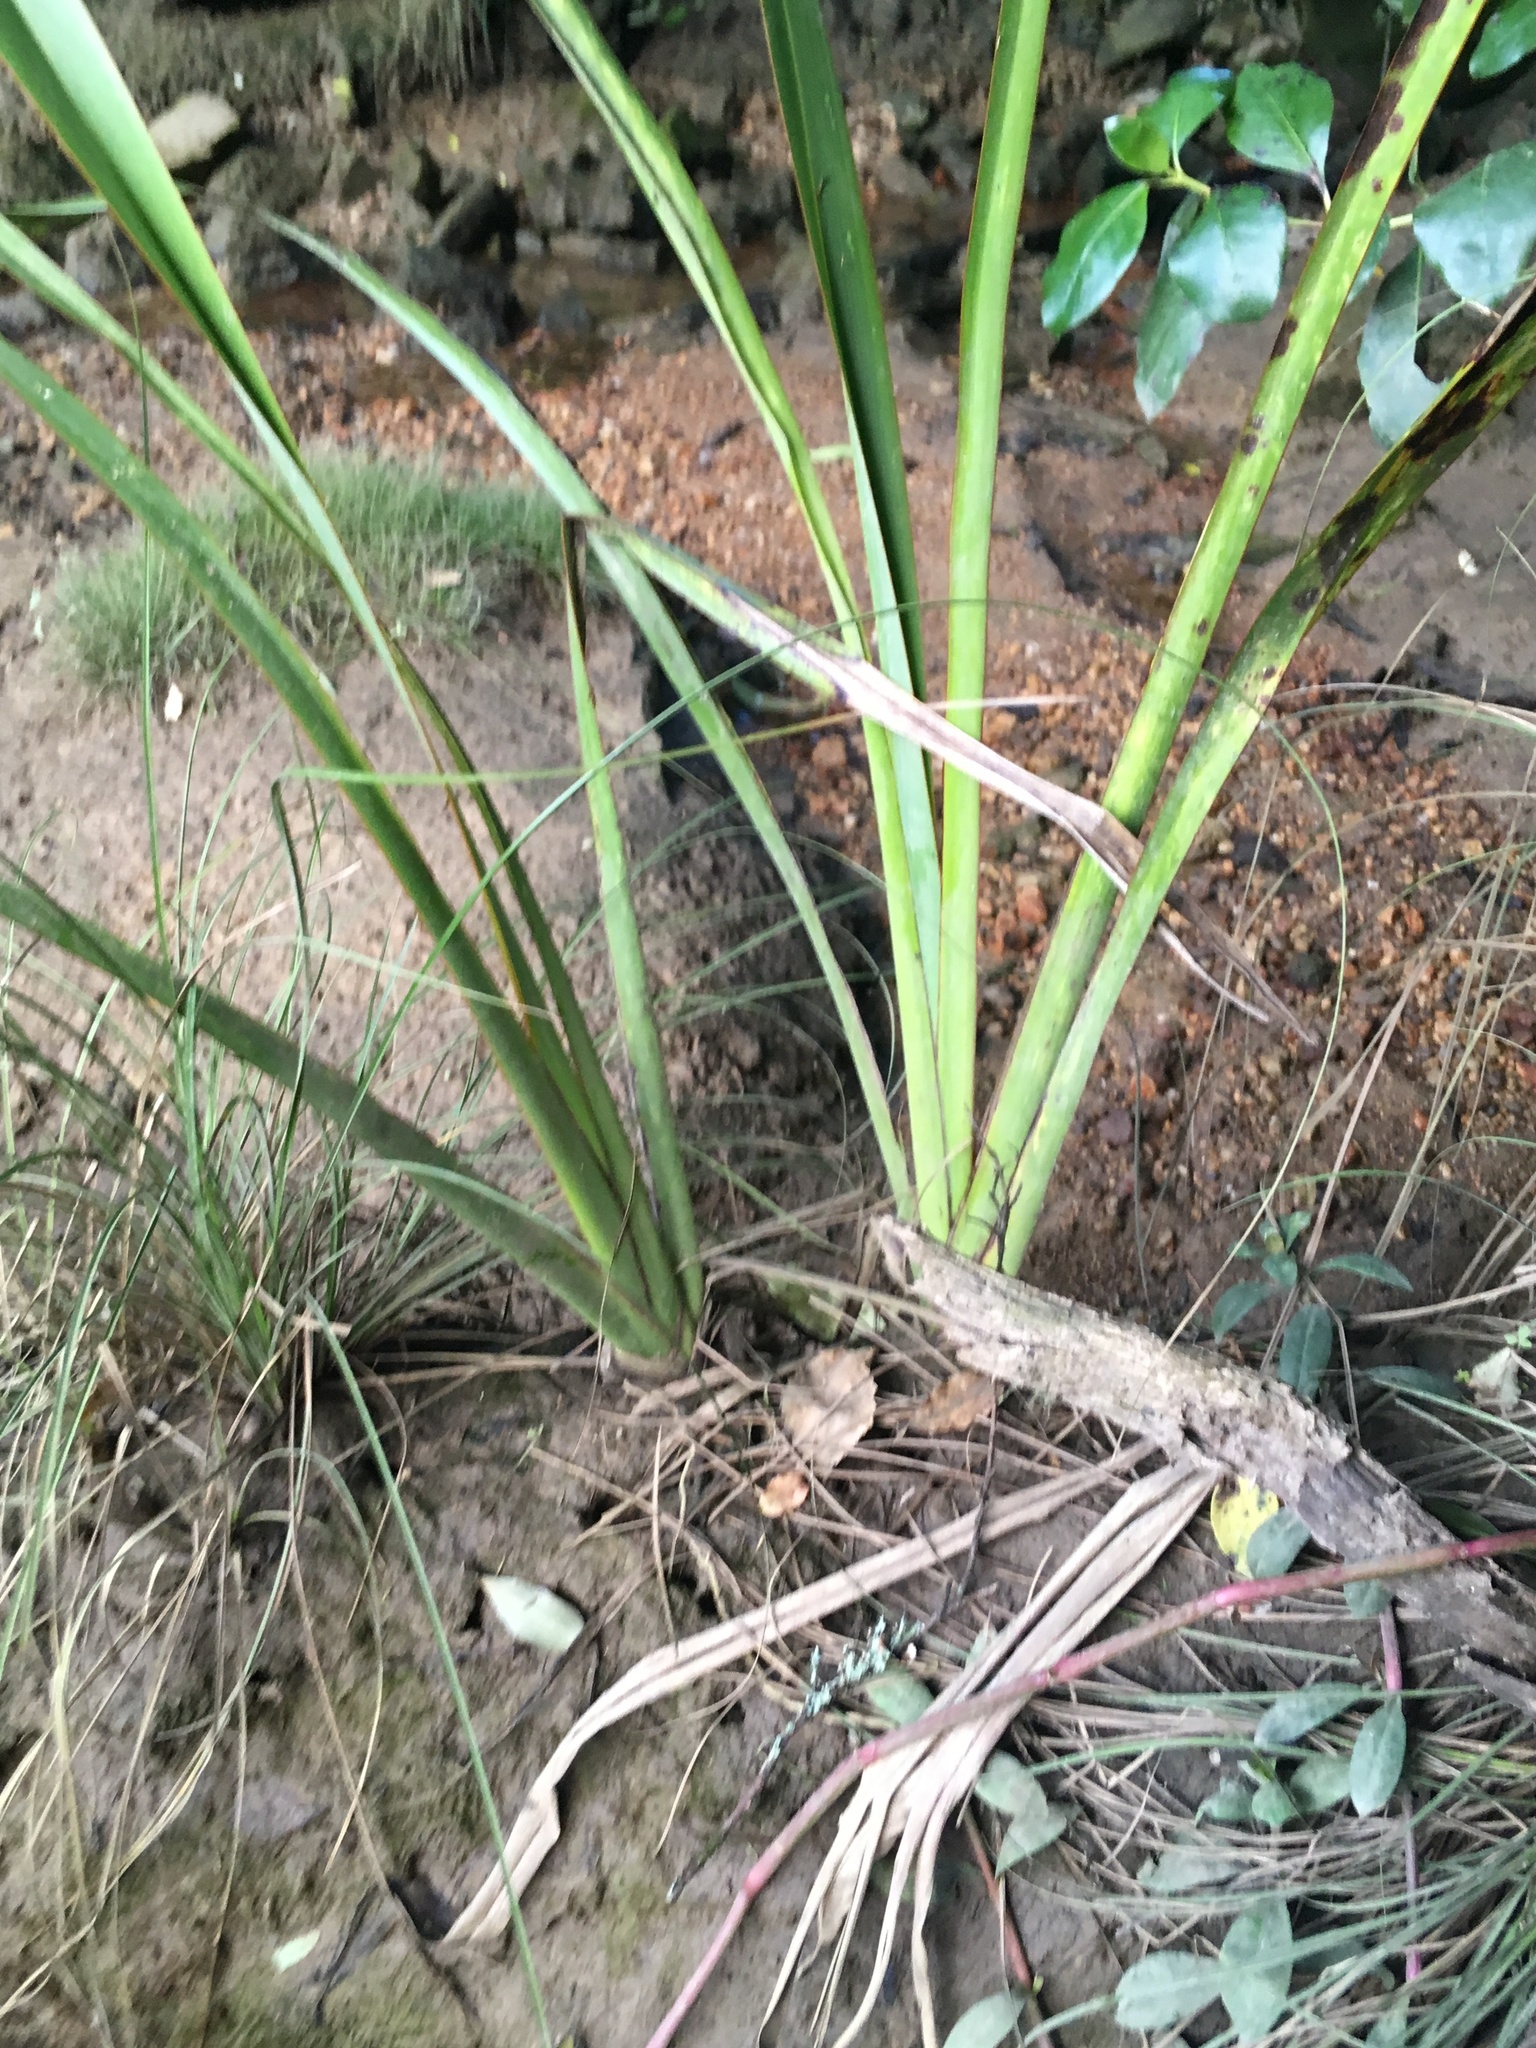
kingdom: Plantae
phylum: Tracheophyta
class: Liliopsida
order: Asparagales
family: Asphodelaceae
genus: Phormium
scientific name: Phormium tenax
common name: New zealand flax
